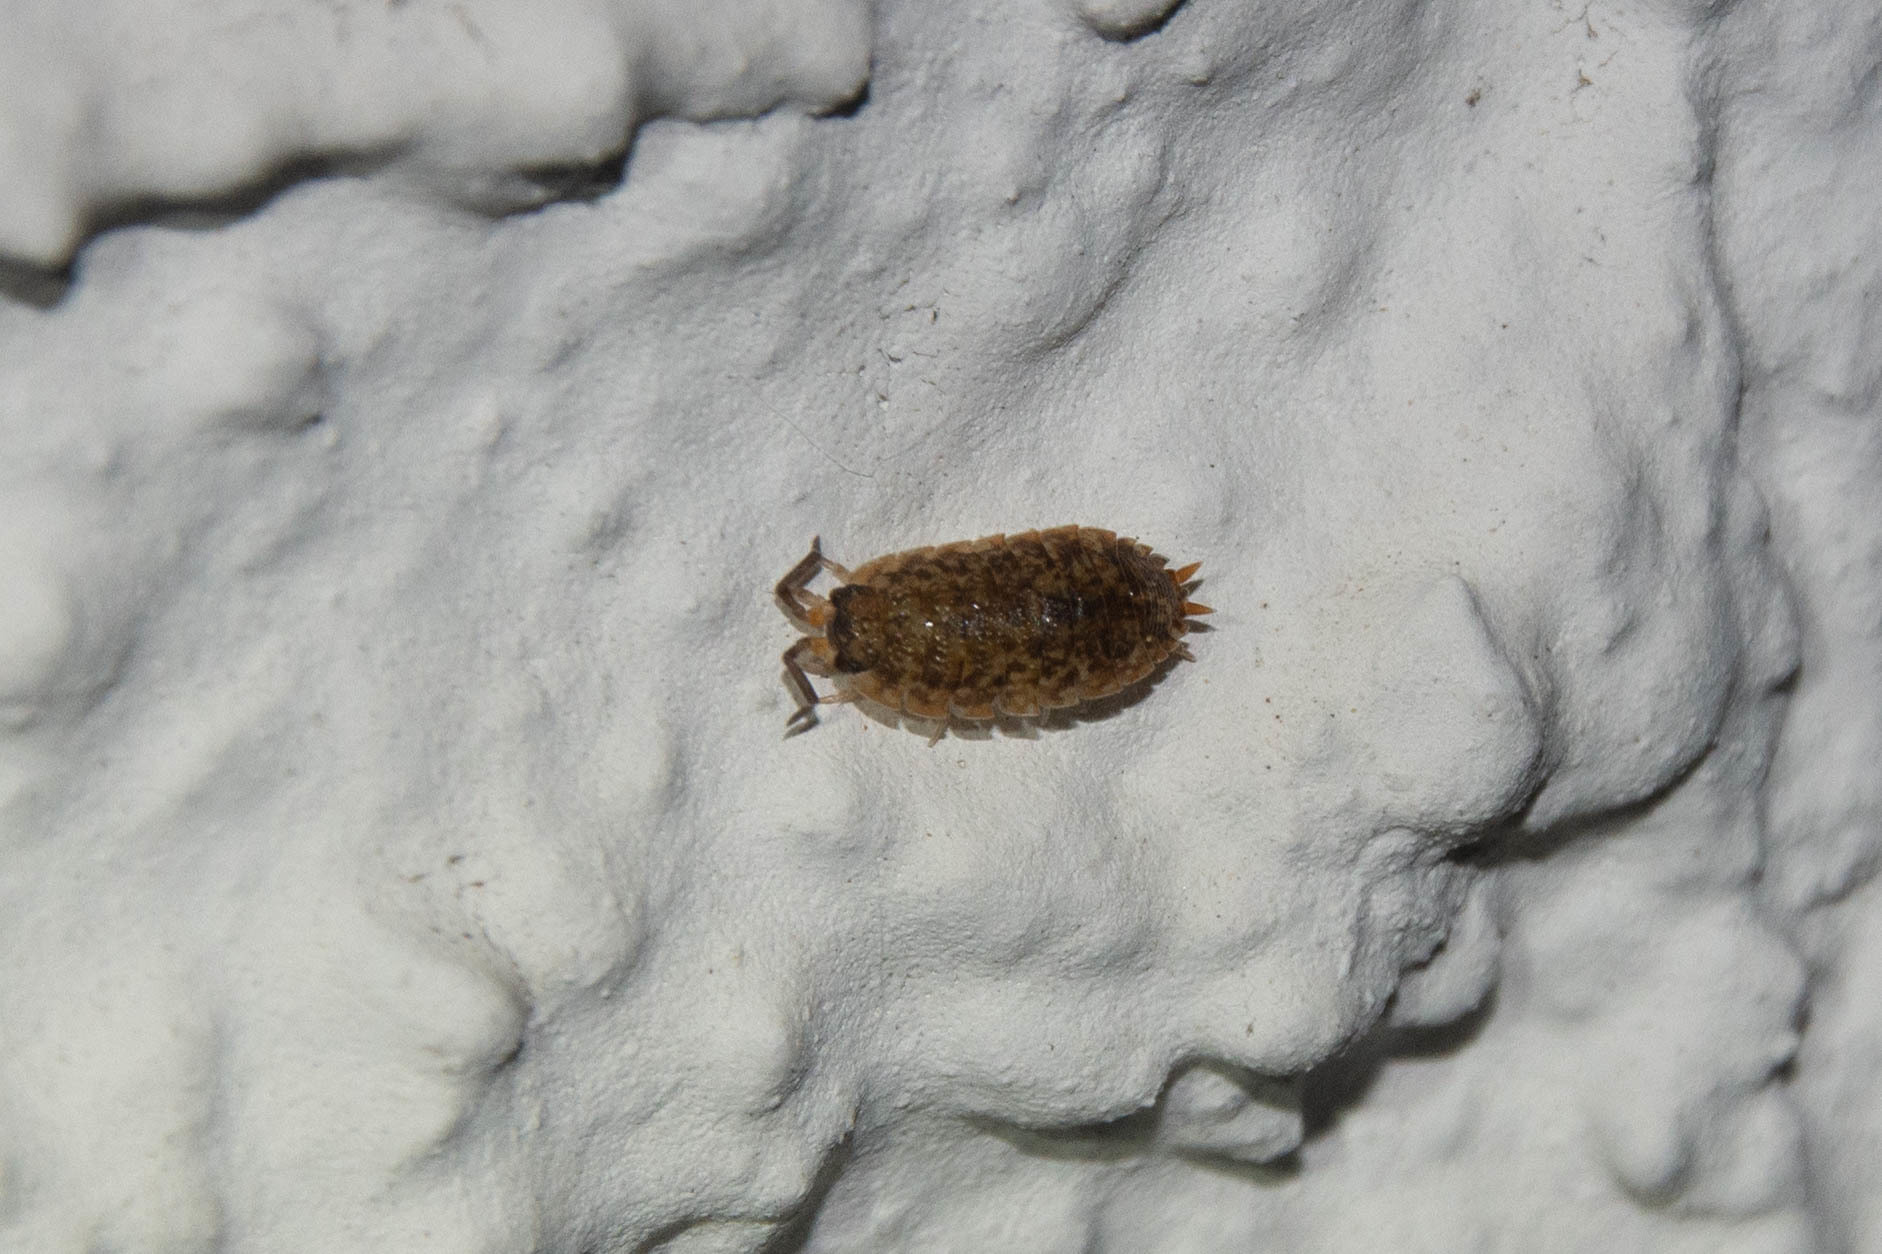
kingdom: Animalia
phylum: Arthropoda
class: Malacostraca
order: Isopoda
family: Porcellionidae
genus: Porcellio
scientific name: Porcellio scaber
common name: Common rough woodlouse
